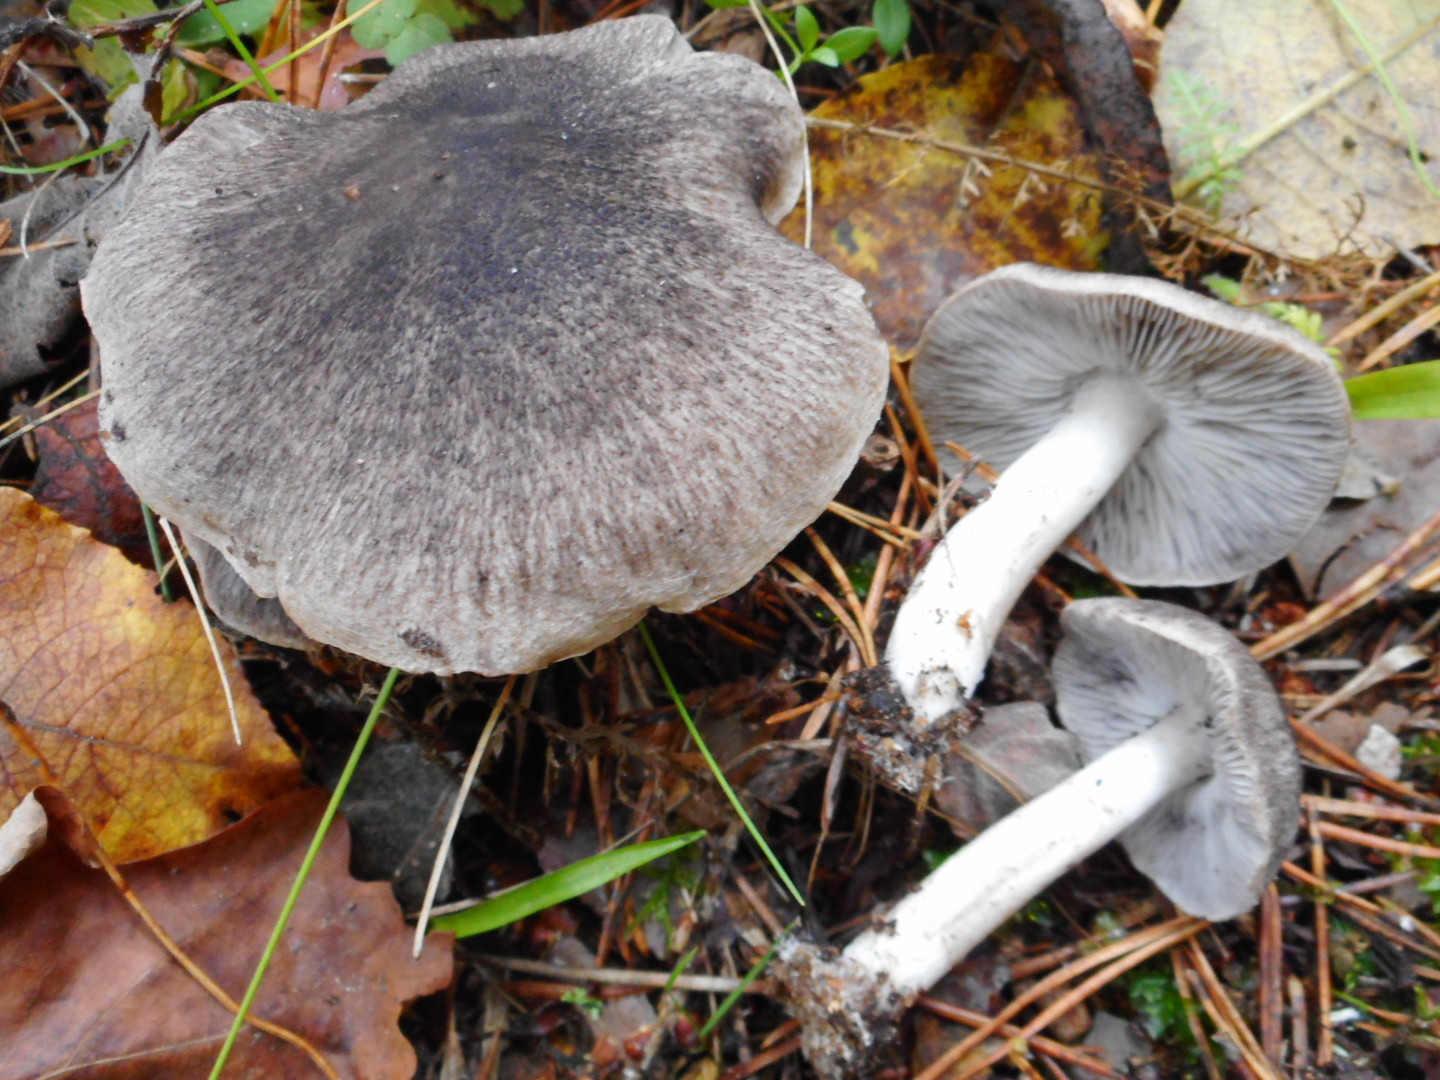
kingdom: Fungi
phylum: Basidiomycota
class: Agaricomycetes
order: Agaricales
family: Tricholomataceae
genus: Tricholoma
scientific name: Tricholoma terreum
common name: Grey knight
